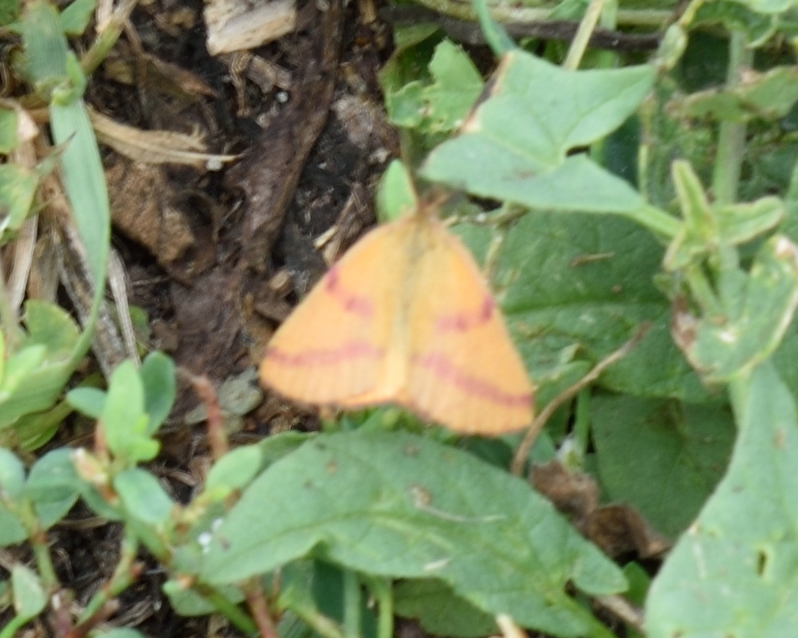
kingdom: Animalia
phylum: Arthropoda
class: Insecta
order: Lepidoptera
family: Geometridae
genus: Lythria
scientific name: Lythria purpuraria
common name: Purple-barred yellow
